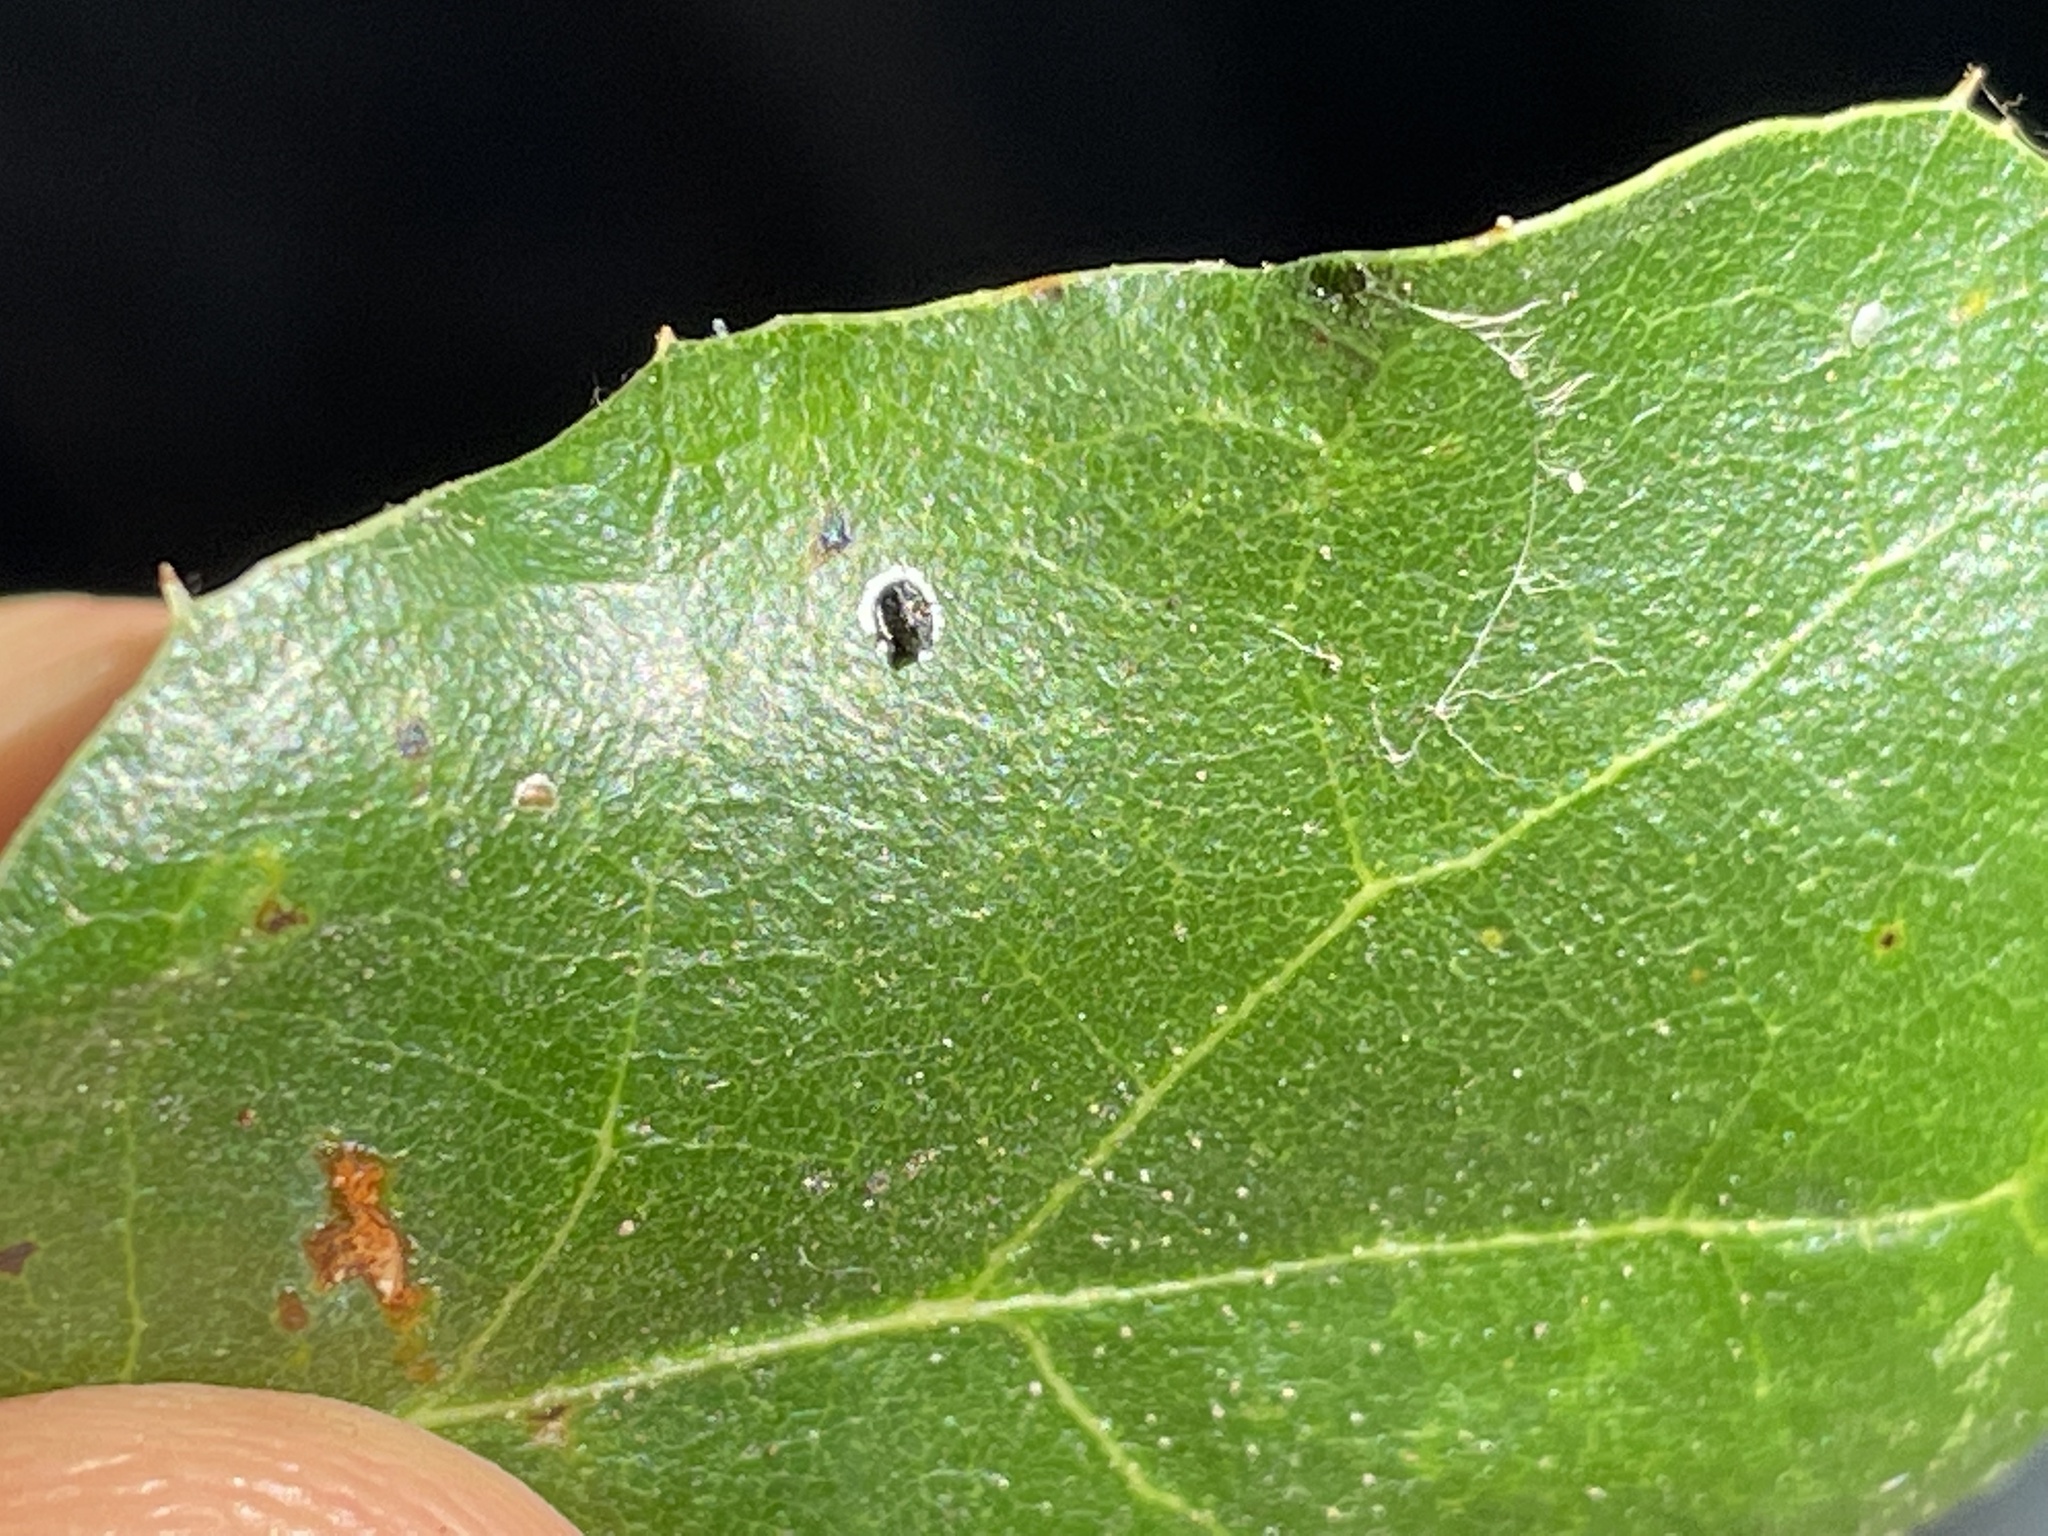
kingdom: Animalia
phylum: Arthropoda
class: Insecta
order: Hemiptera
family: Aleyrodidae
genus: Tetraleurodes
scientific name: Tetraleurodes perileuca
